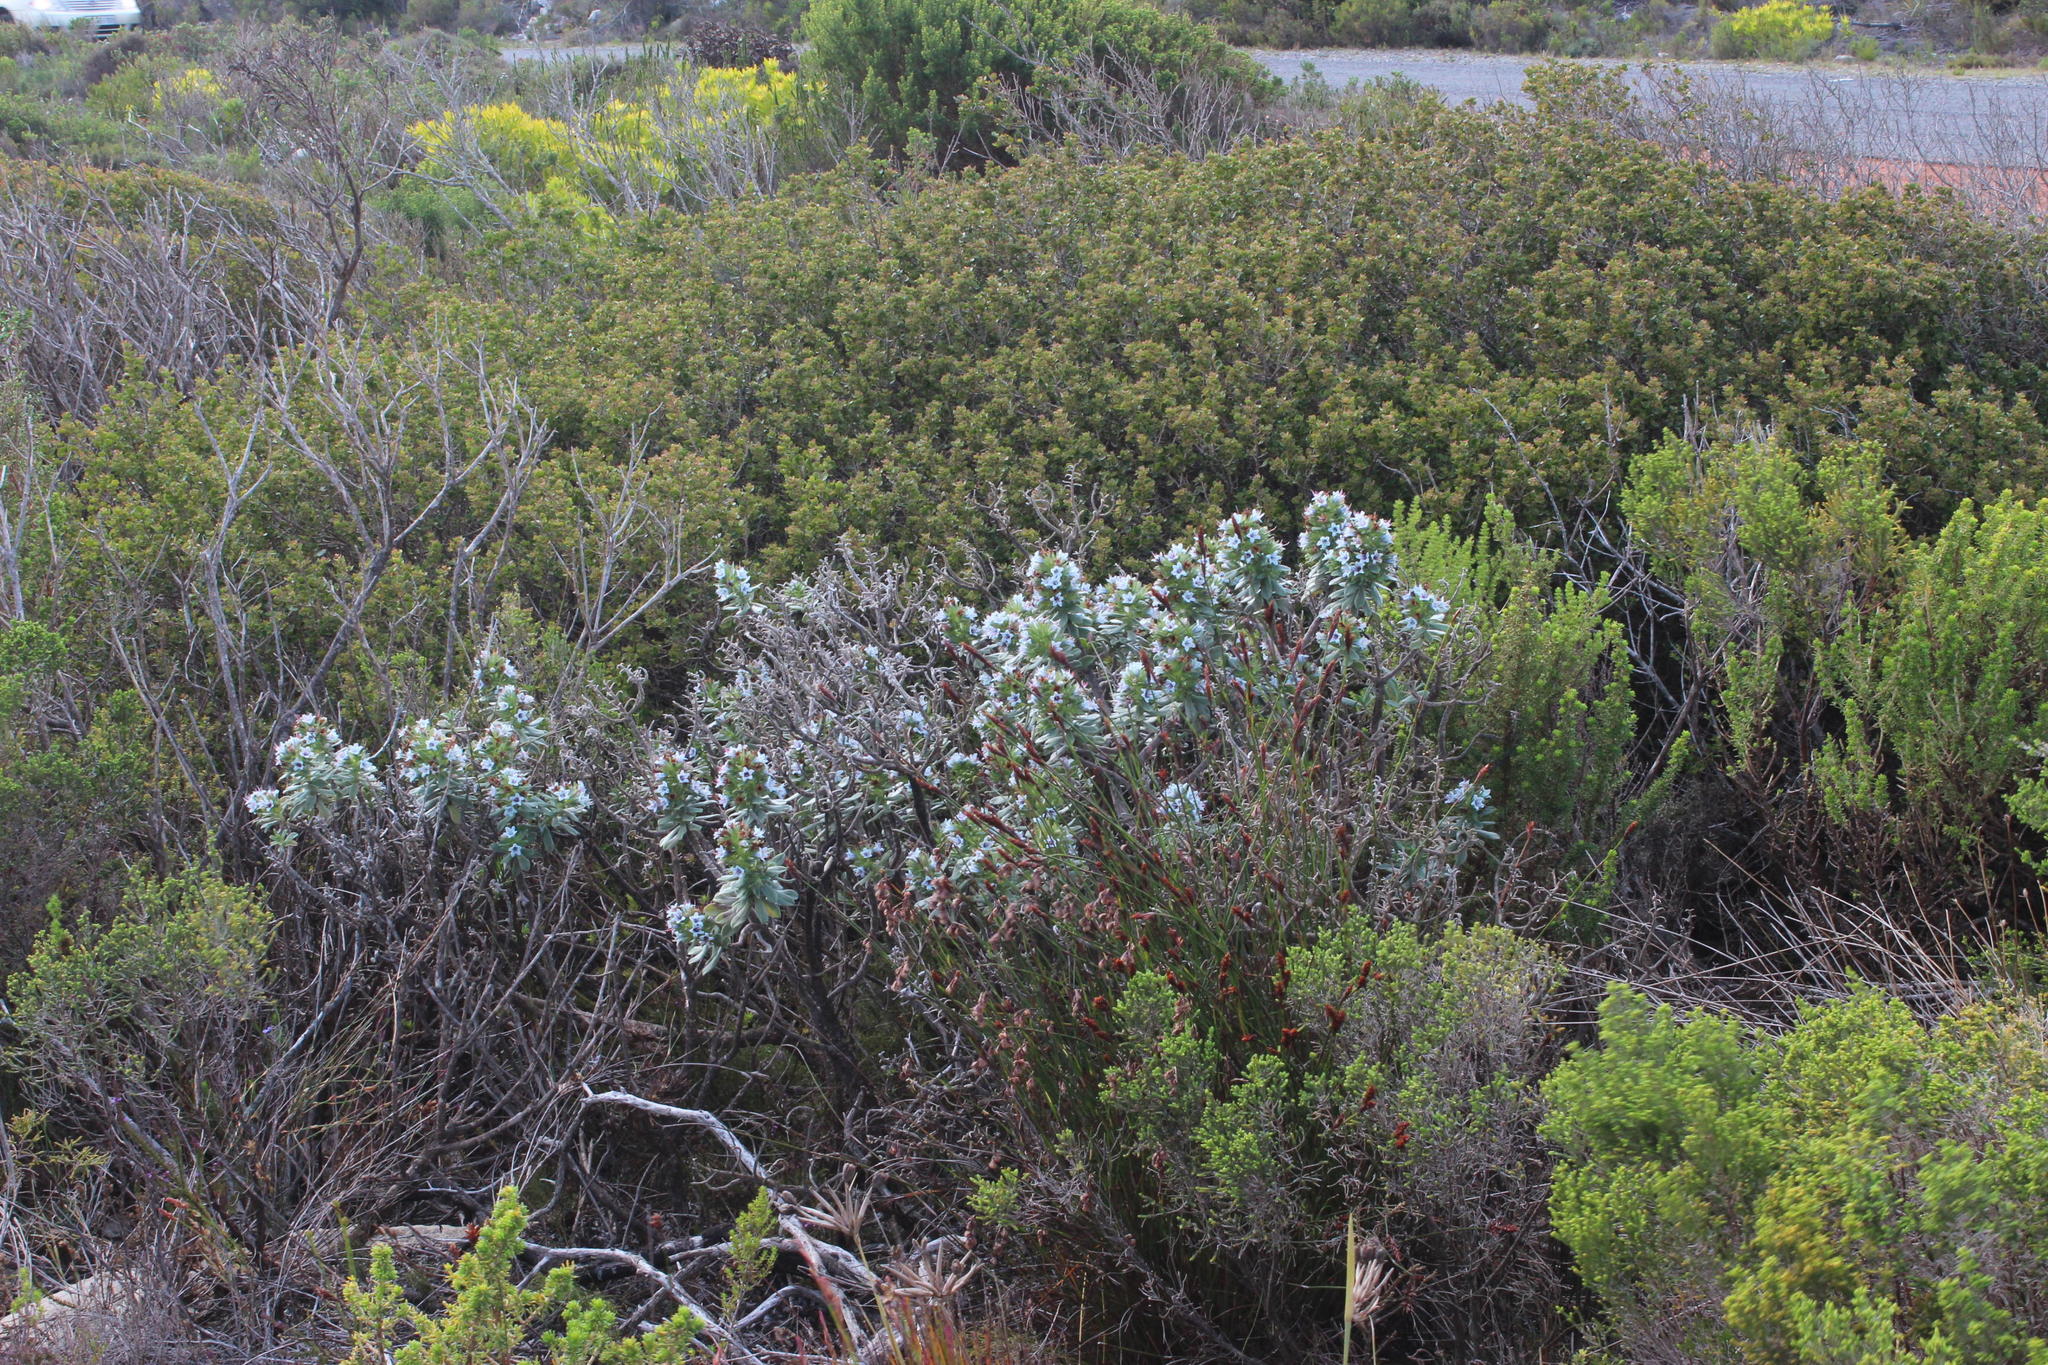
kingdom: Plantae
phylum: Tracheophyta
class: Magnoliopsida
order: Boraginales
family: Boraginaceae
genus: Lobostemon
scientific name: Lobostemon montanus
